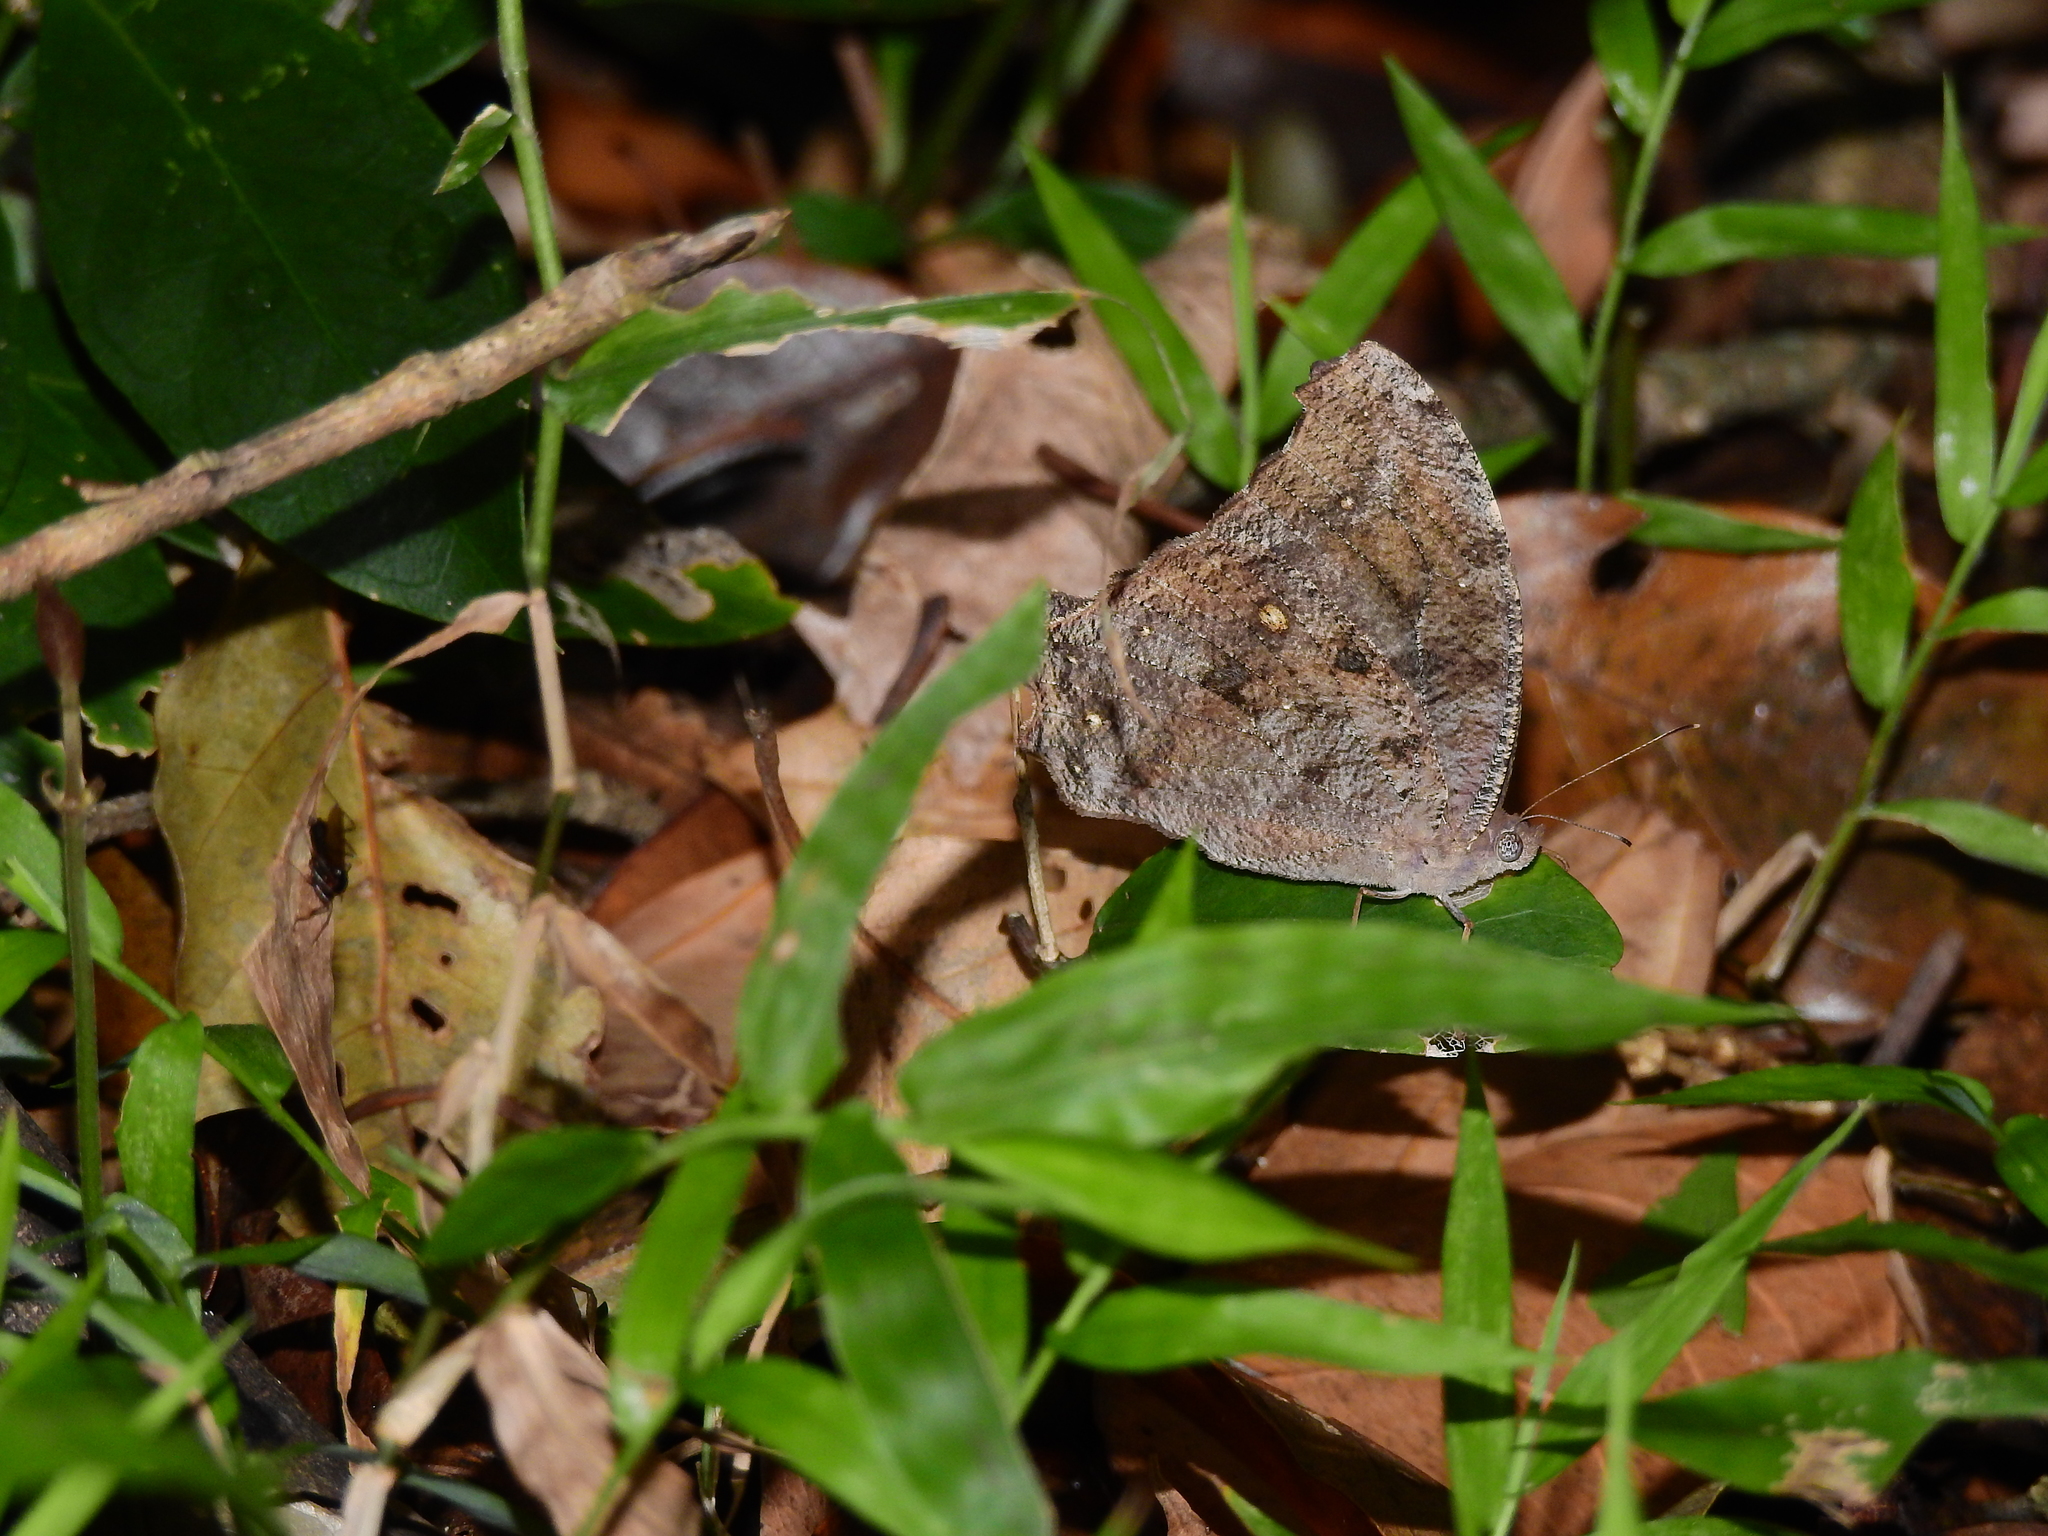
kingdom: Animalia
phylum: Arthropoda
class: Insecta
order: Lepidoptera
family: Nymphalidae
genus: Melanitis
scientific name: Melanitis leda
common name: Twilight brown
